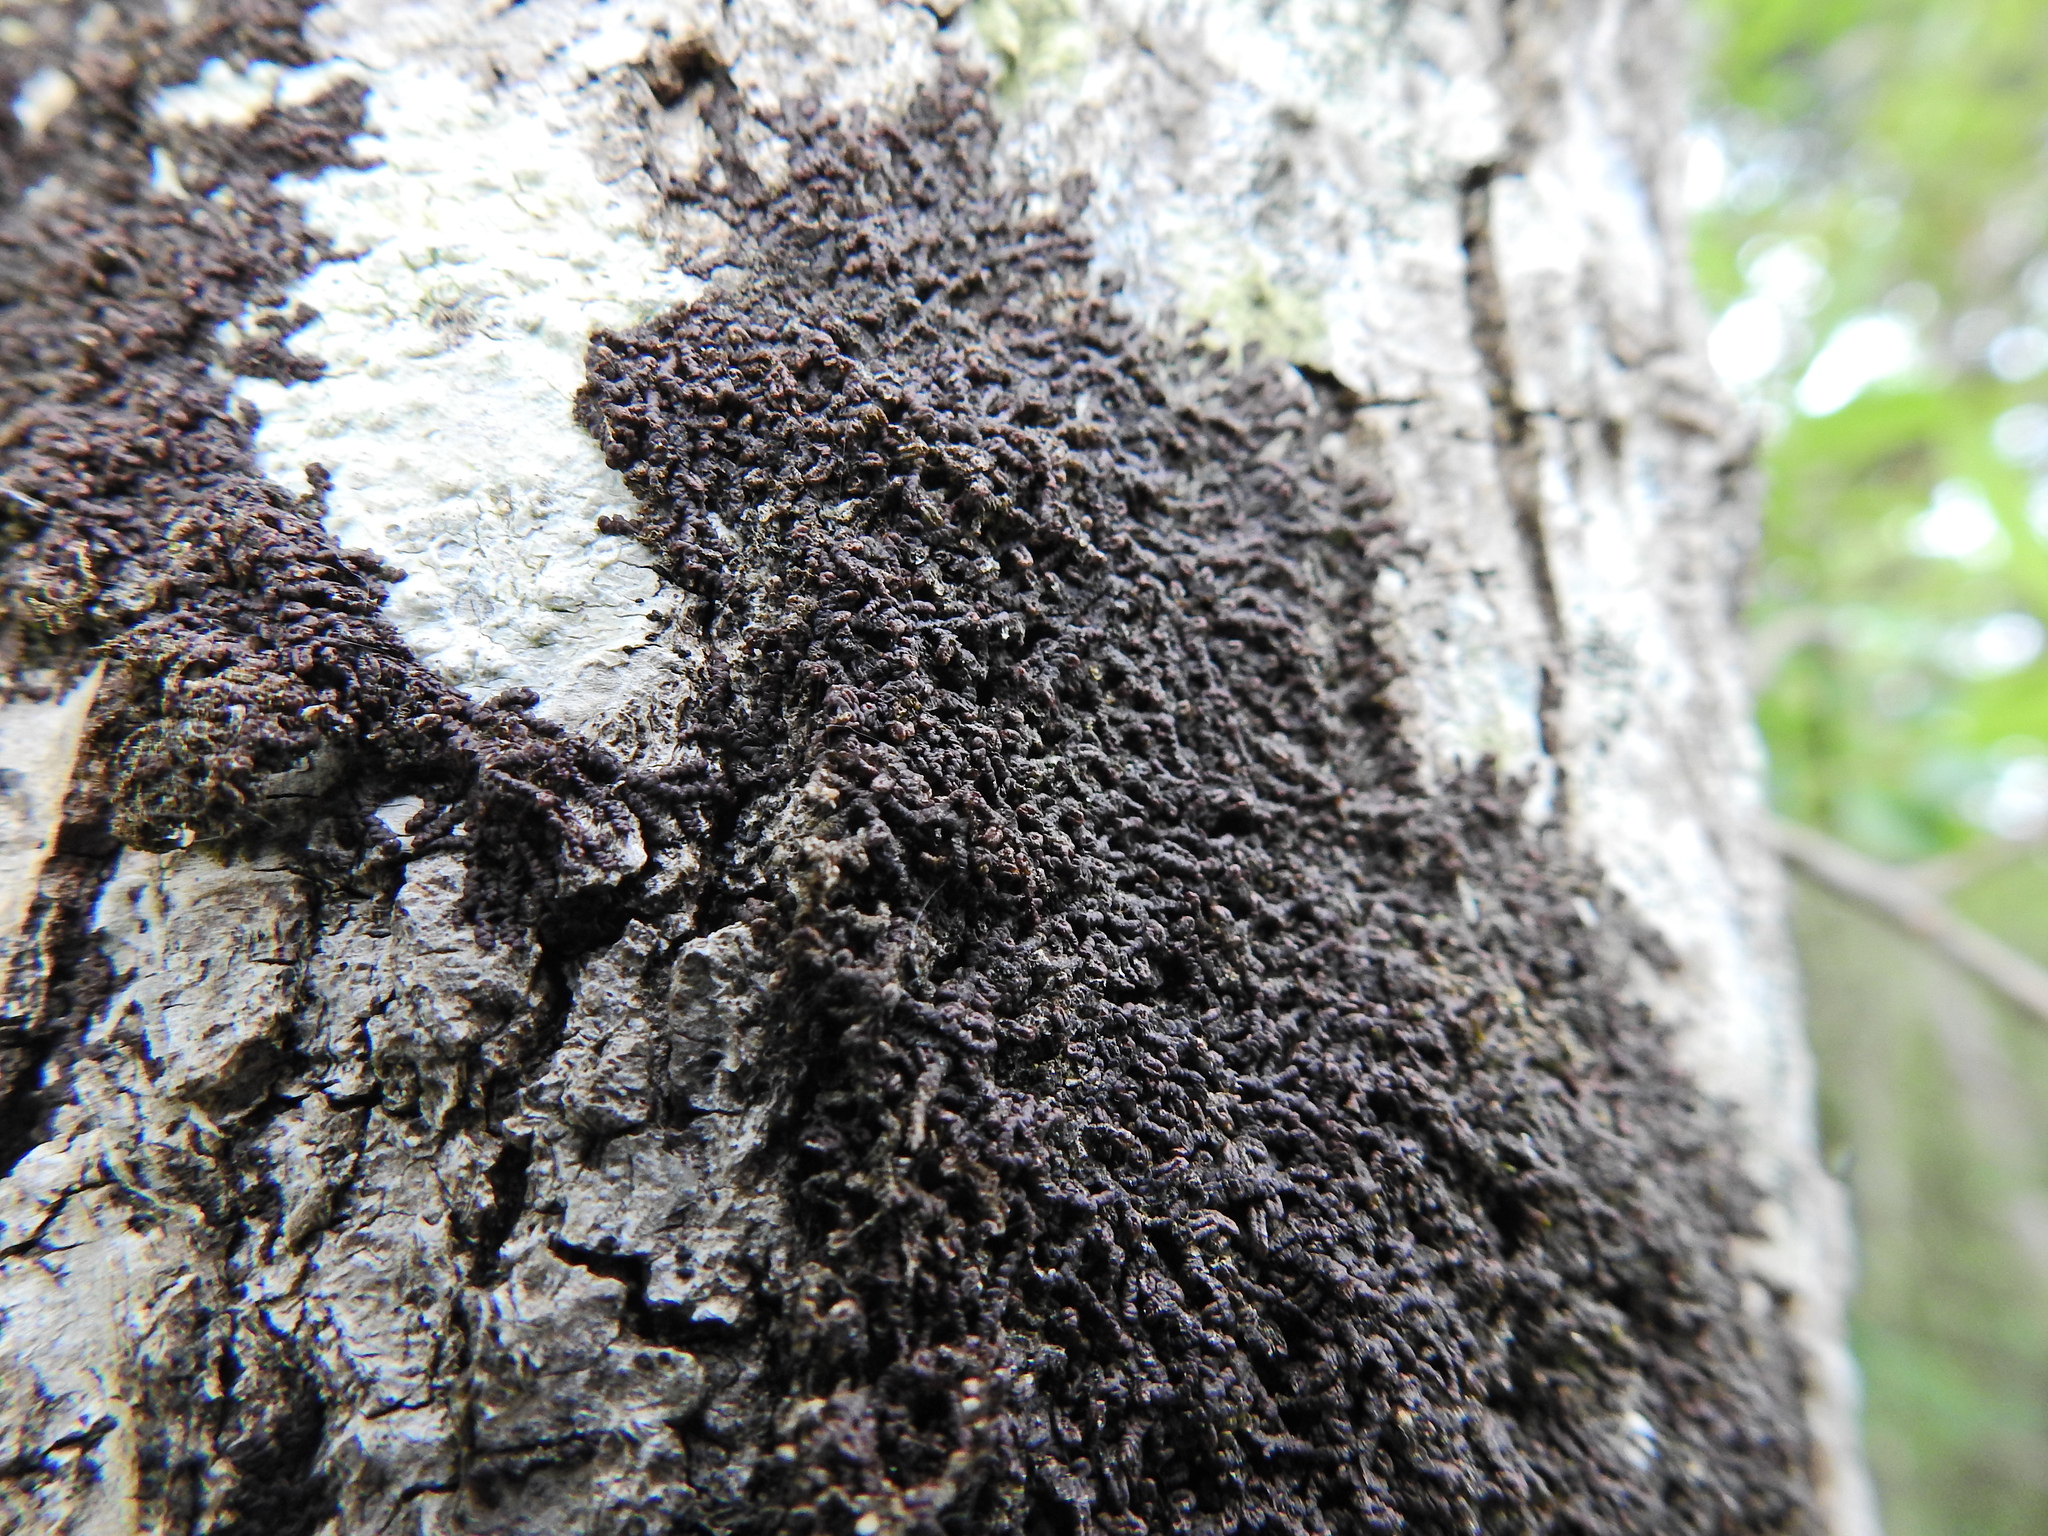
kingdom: Plantae
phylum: Marchantiophyta
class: Jungermanniopsida
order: Porellales
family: Frullaniaceae
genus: Frullania
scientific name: Frullania dilatata
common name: Dilated scalewort
